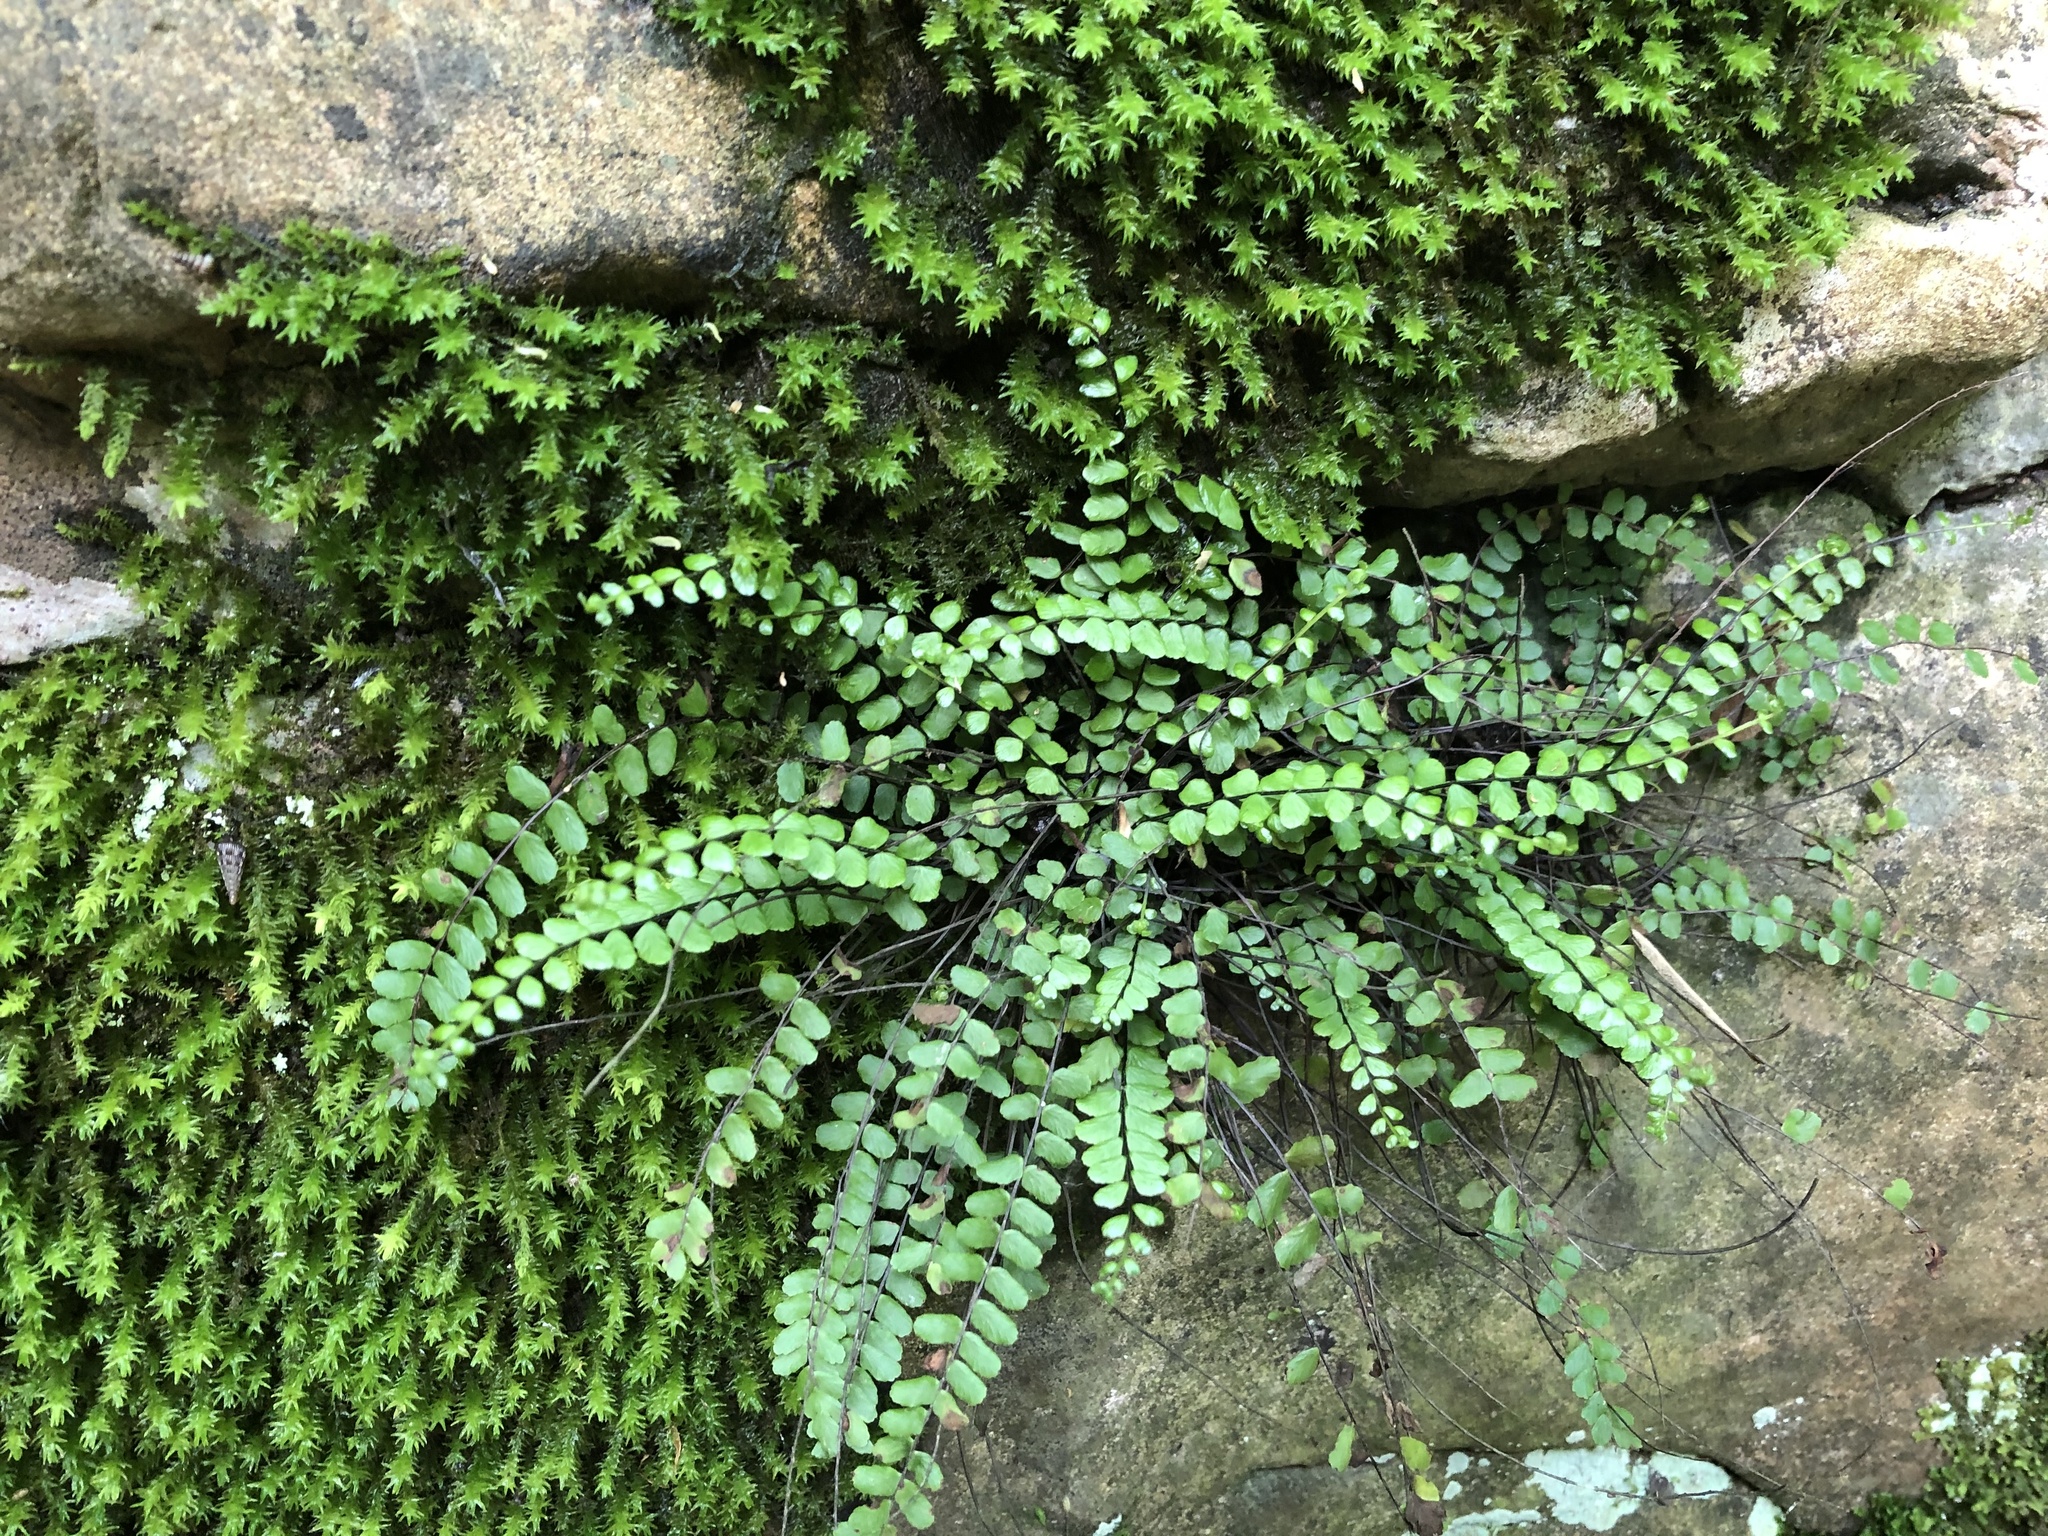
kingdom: Plantae
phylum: Tracheophyta
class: Polypodiopsida
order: Polypodiales
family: Aspleniaceae
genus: Asplenium
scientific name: Asplenium trichomanes
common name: Maidenhair spleenwort
